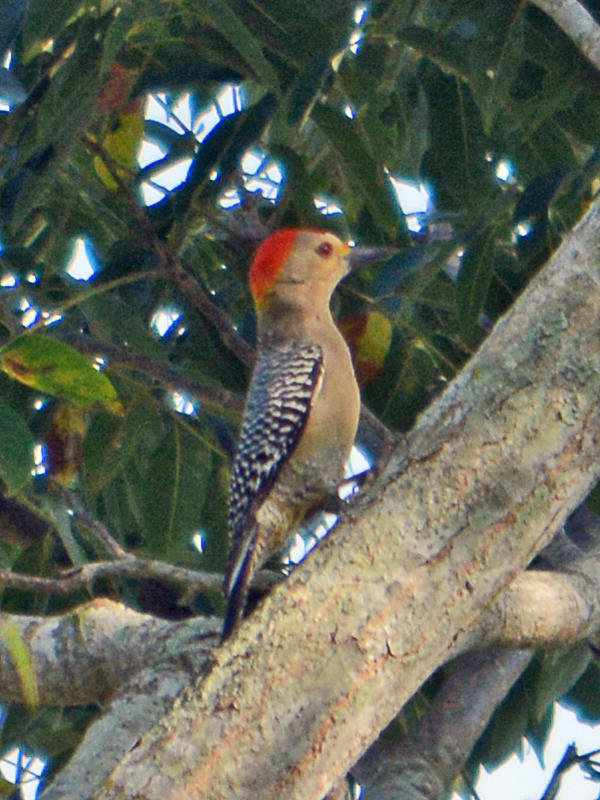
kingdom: Animalia
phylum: Chordata
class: Aves
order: Piciformes
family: Picidae
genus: Melanerpes
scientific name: Melanerpes aurifrons
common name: Golden-fronted woodpecker
